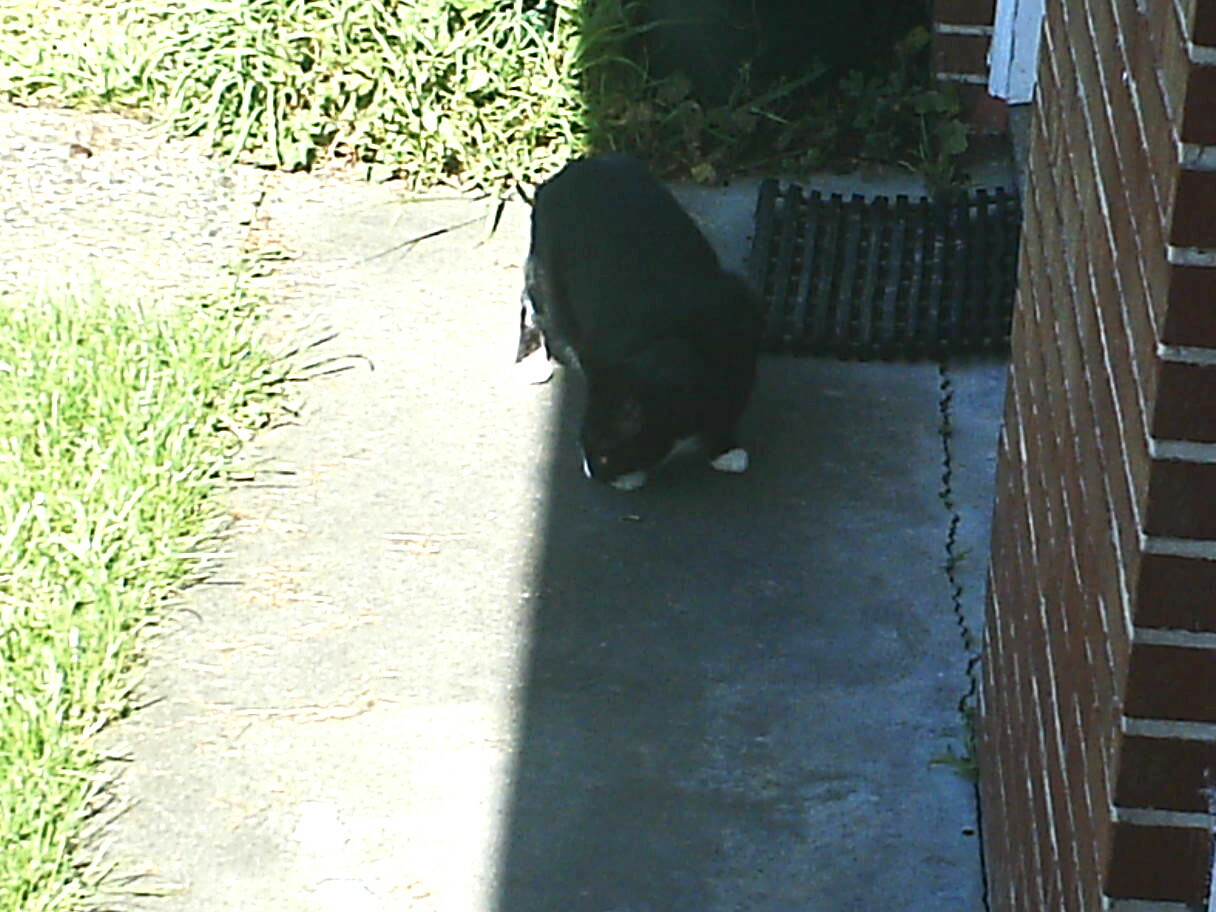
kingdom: Animalia
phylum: Chordata
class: Mammalia
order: Carnivora
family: Felidae
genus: Felis
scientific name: Felis catus
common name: Domestic cat
